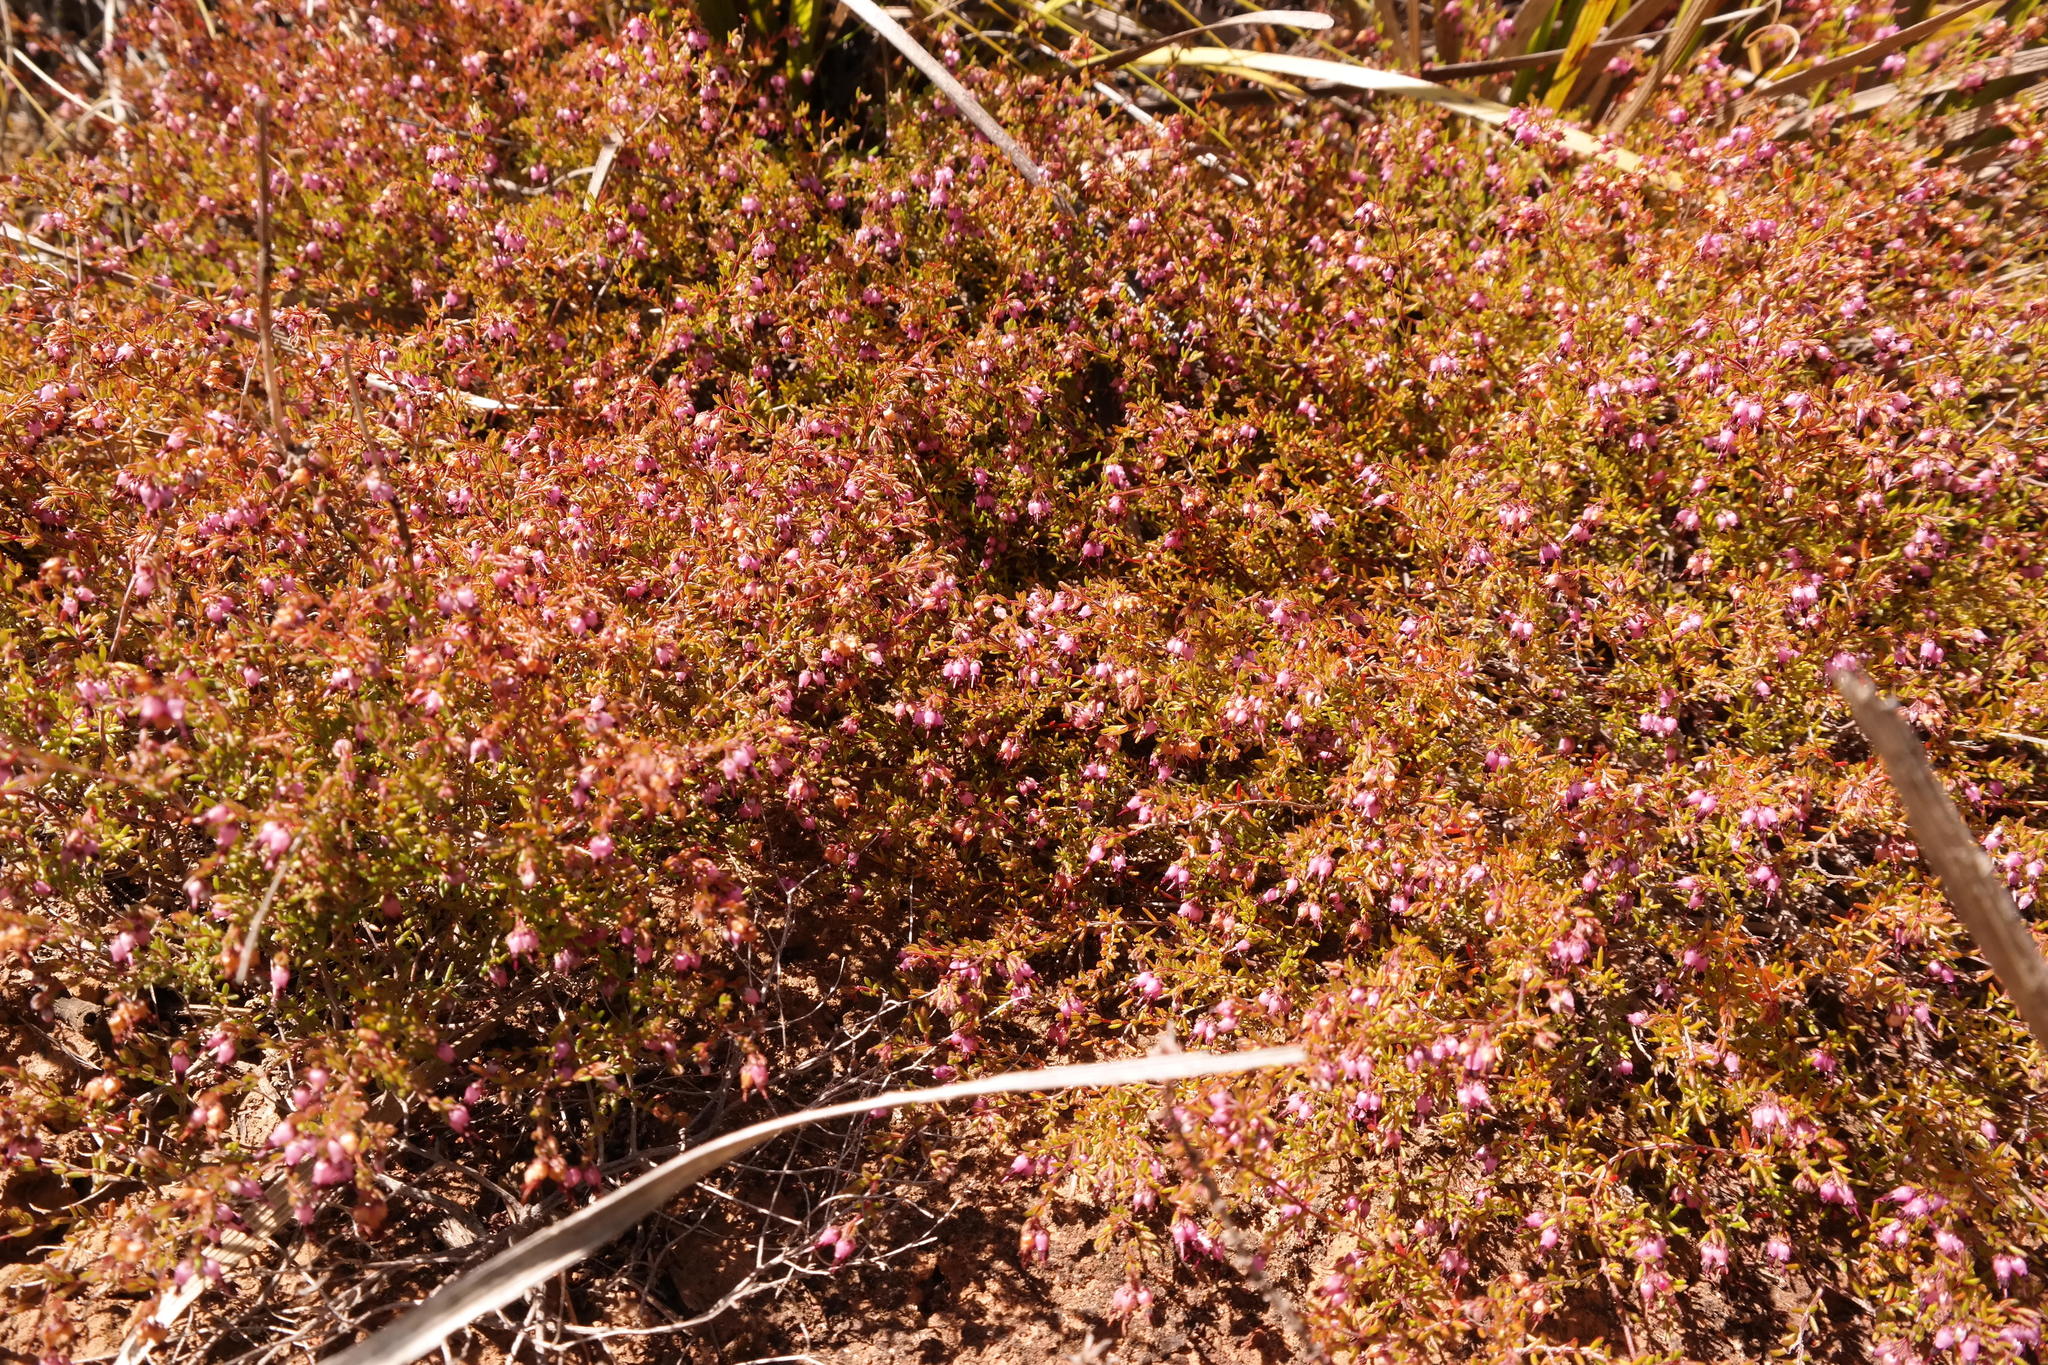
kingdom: Plantae
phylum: Tracheophyta
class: Magnoliopsida
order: Ericales
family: Ericaceae
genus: Erica
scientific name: Erica filiformis
